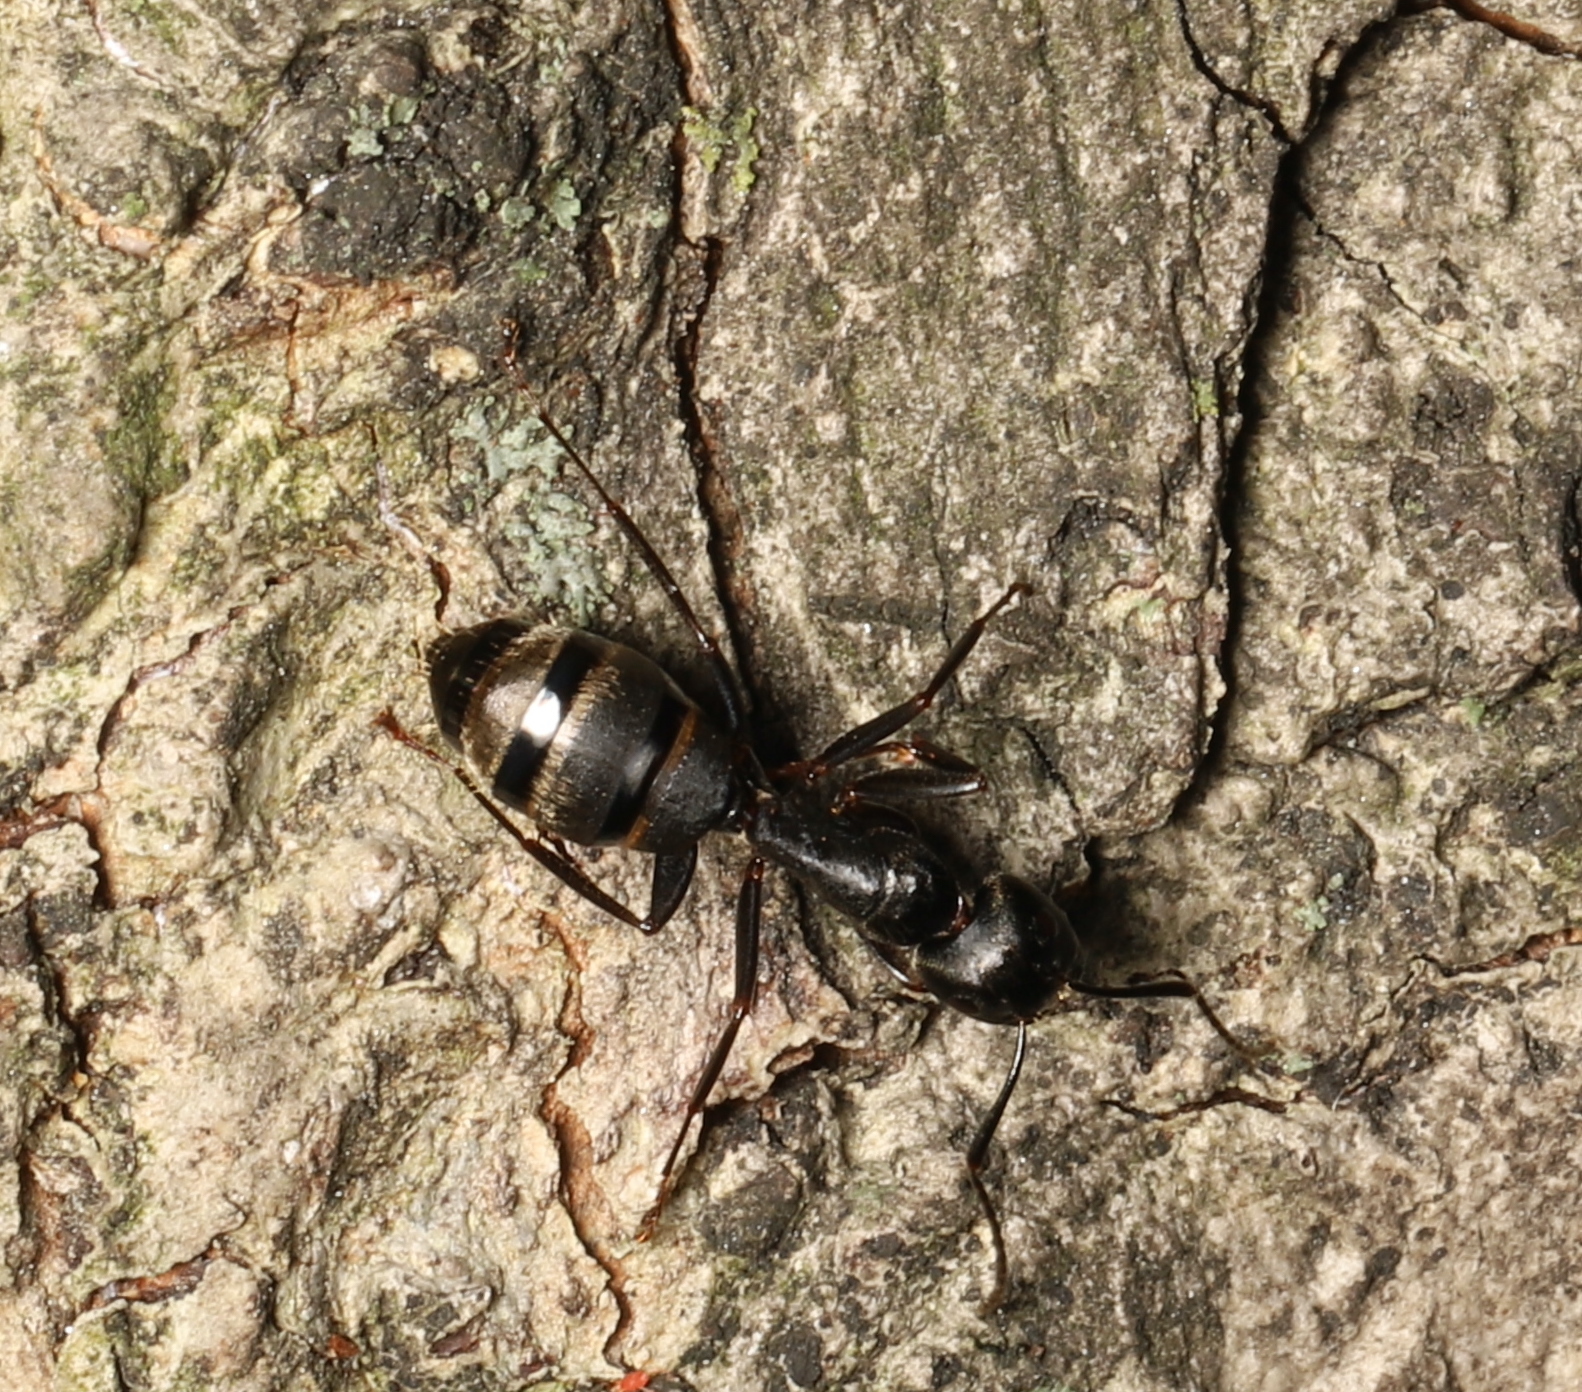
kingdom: Animalia
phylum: Arthropoda
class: Insecta
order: Hymenoptera
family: Formicidae
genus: Camponotus
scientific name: Camponotus pennsylvanicus
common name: Black carpenter ant
